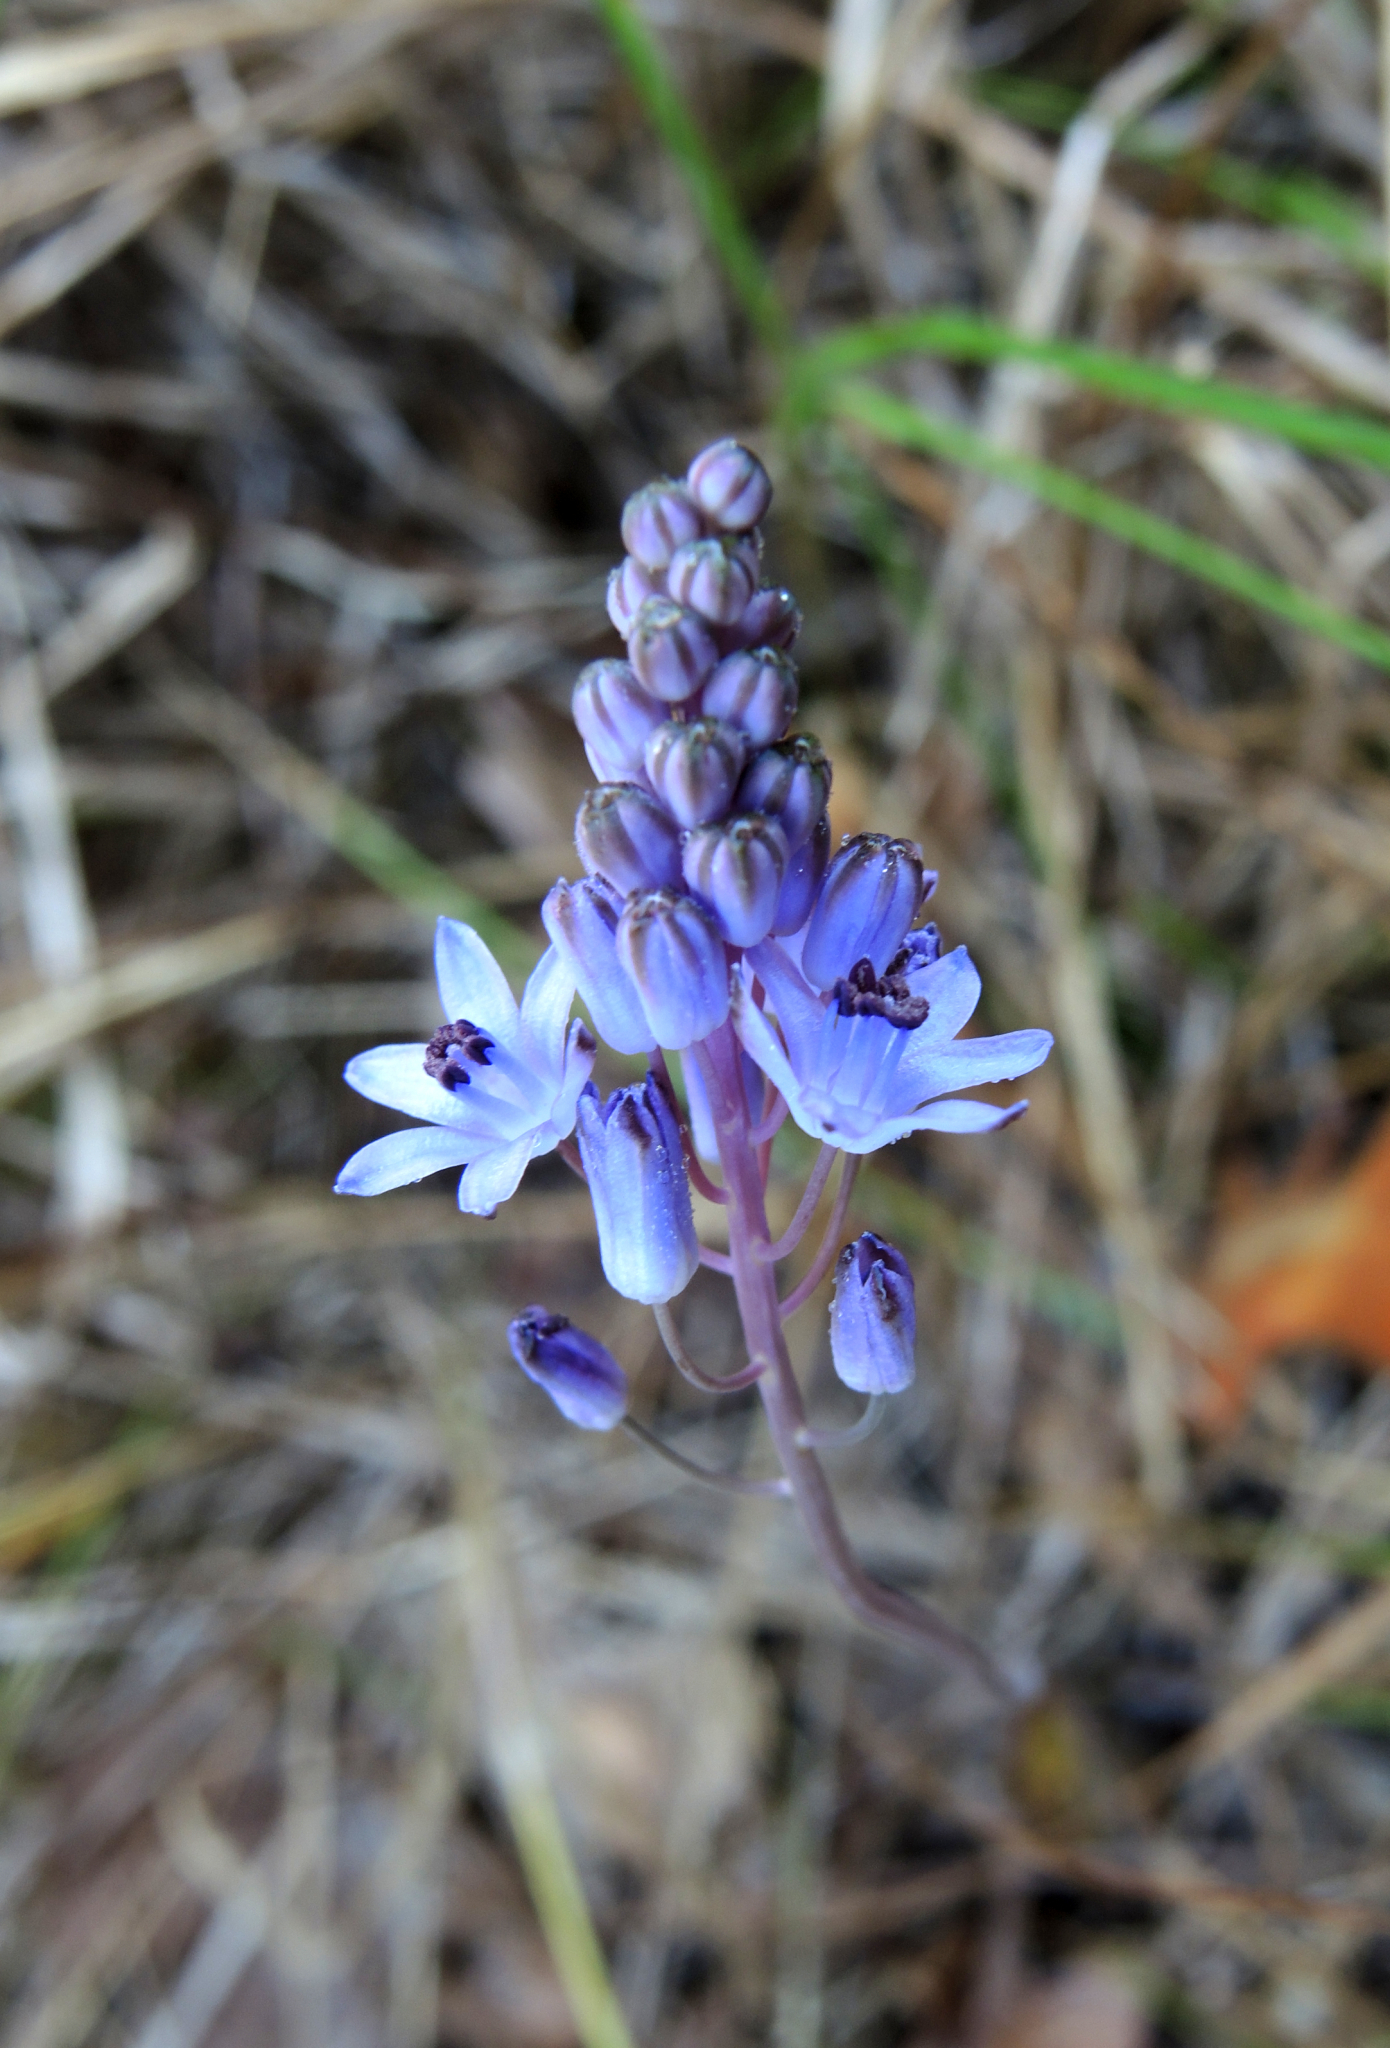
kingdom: Plantae
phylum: Tracheophyta
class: Liliopsida
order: Asparagales
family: Asparagaceae
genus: Prospero
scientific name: Prospero autumnale
